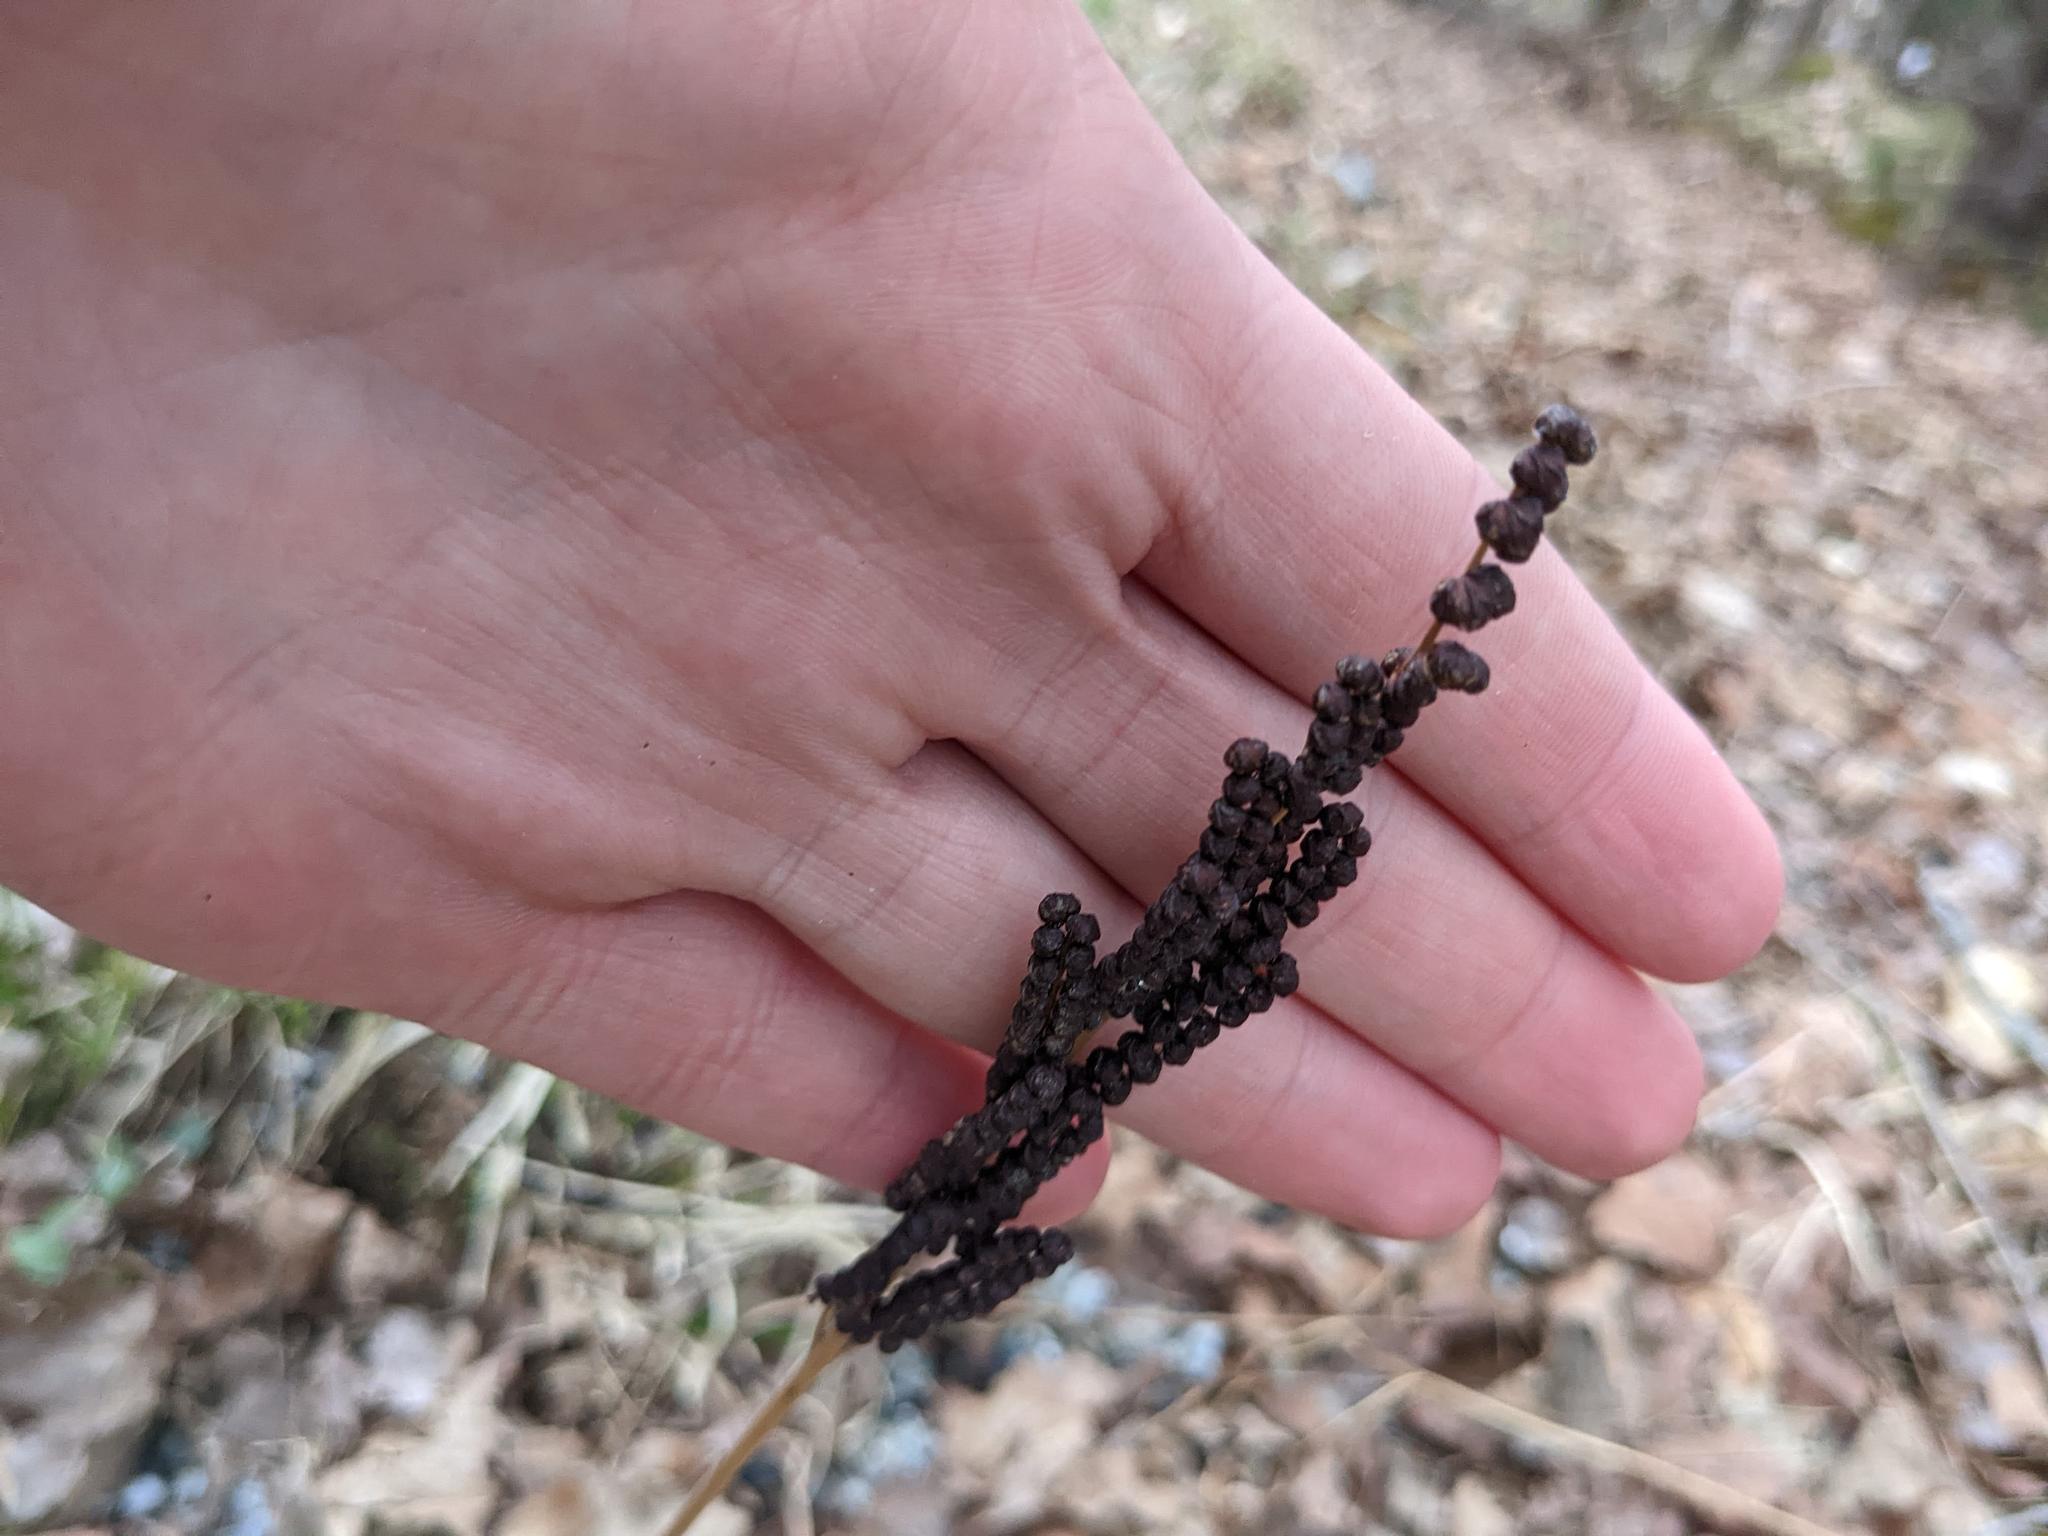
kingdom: Plantae
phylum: Tracheophyta
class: Polypodiopsida
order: Polypodiales
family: Onocleaceae
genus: Onoclea
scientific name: Onoclea sensibilis
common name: Sensitive fern
